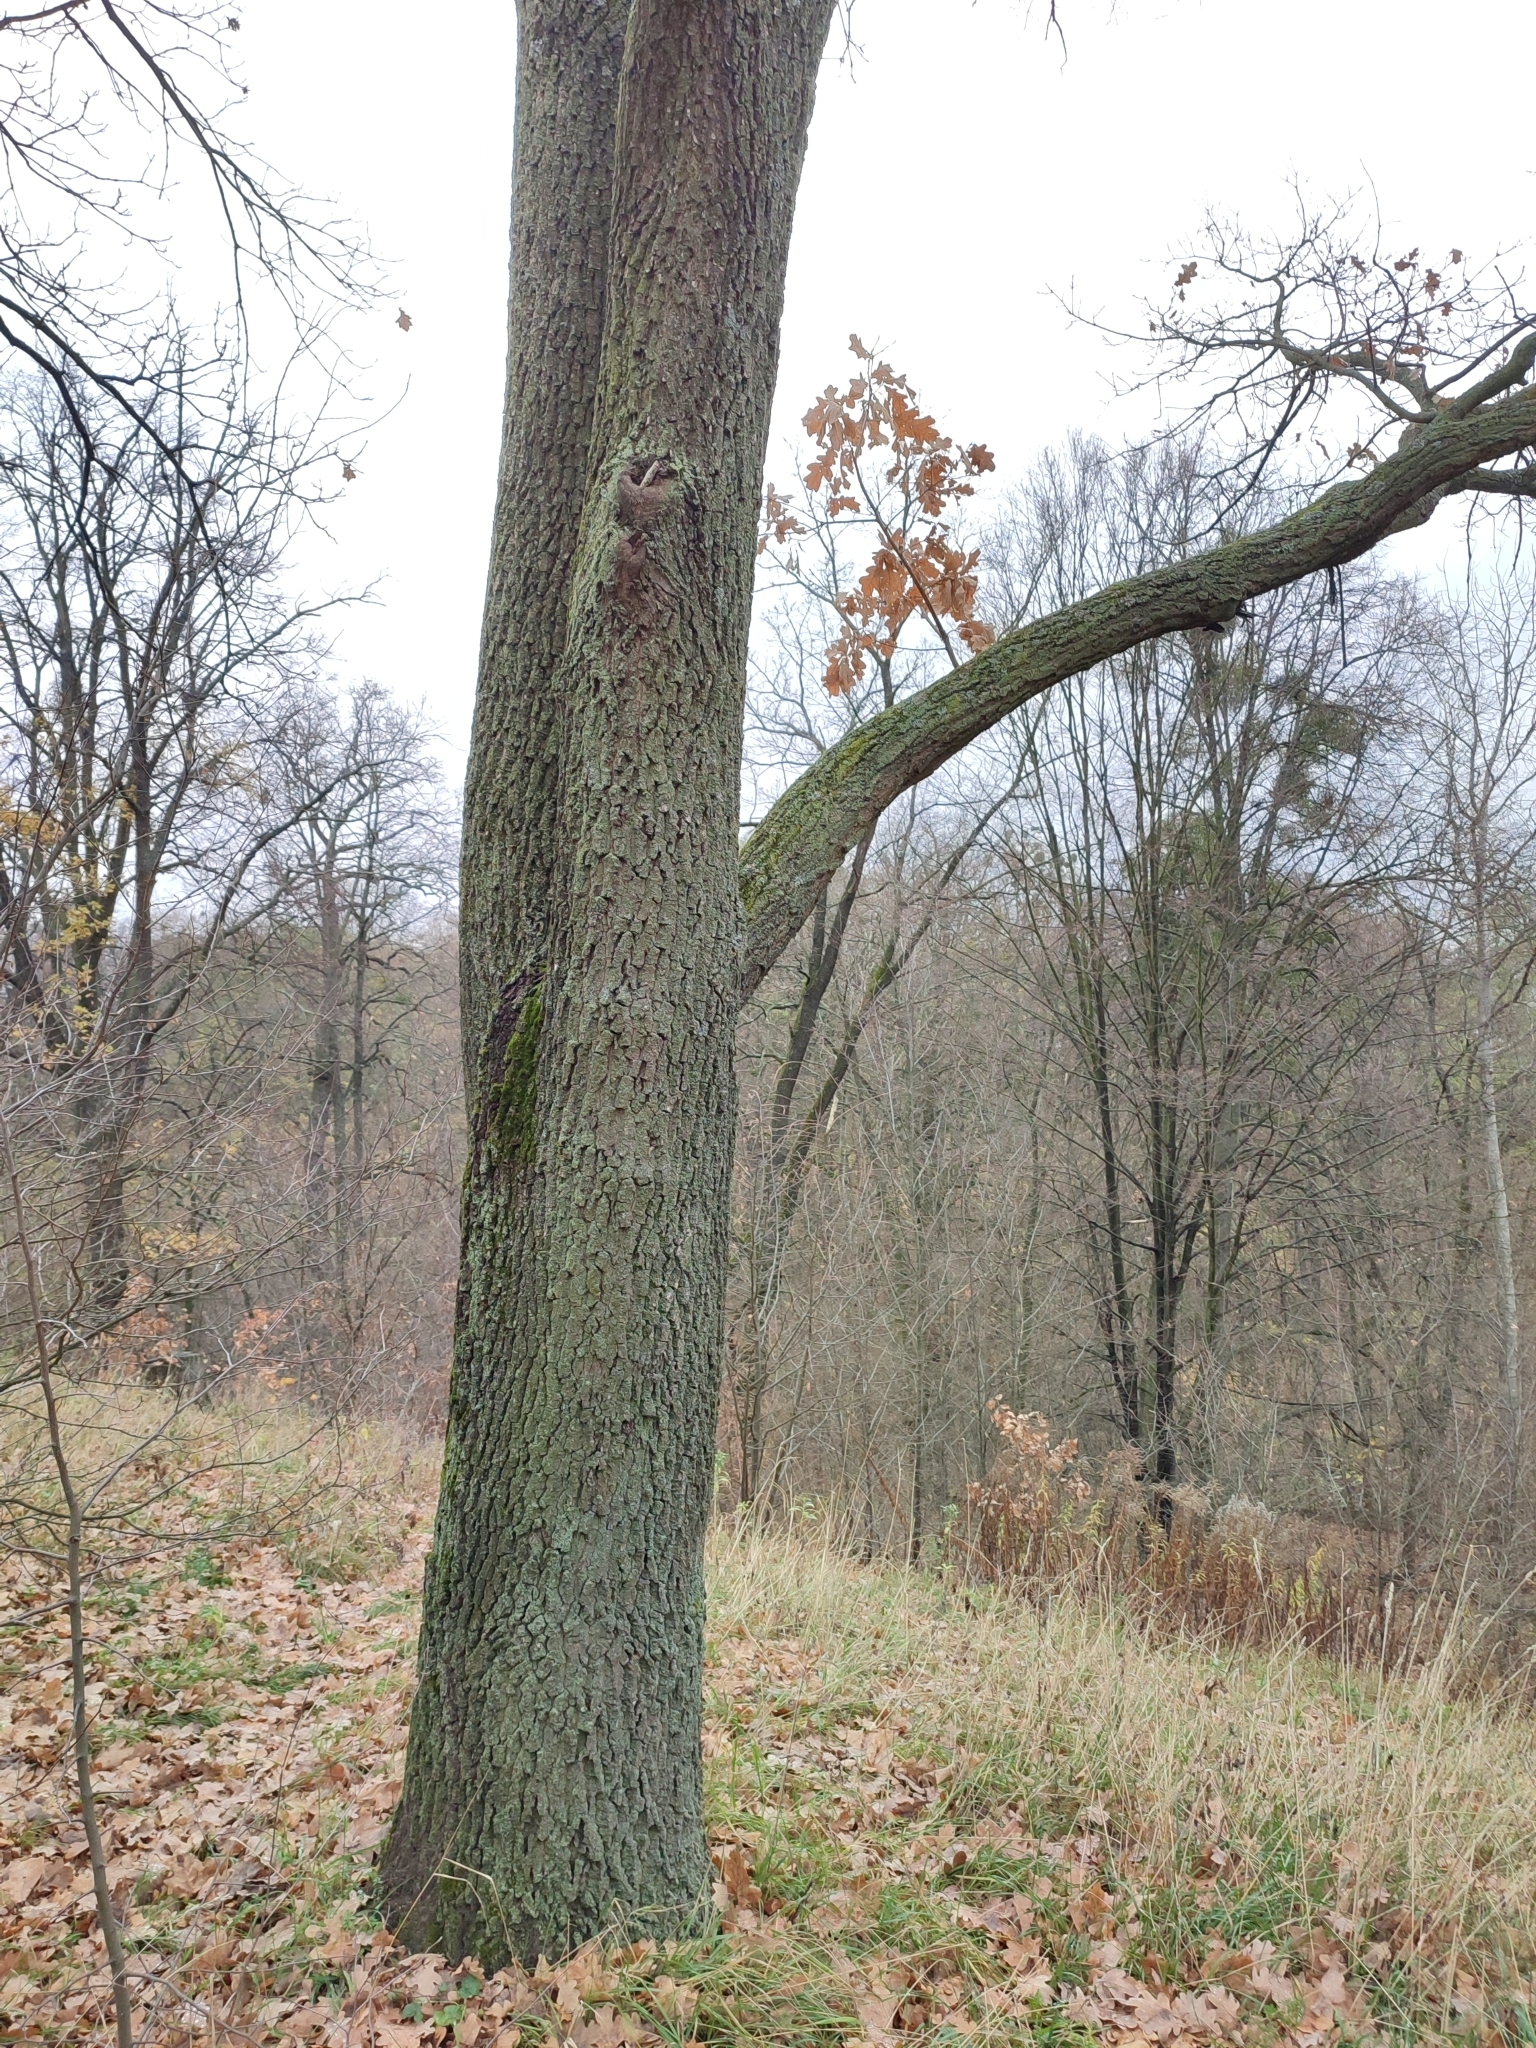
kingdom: Plantae
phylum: Tracheophyta
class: Magnoliopsida
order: Fagales
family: Fagaceae
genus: Quercus
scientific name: Quercus robur
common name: Pedunculate oak
